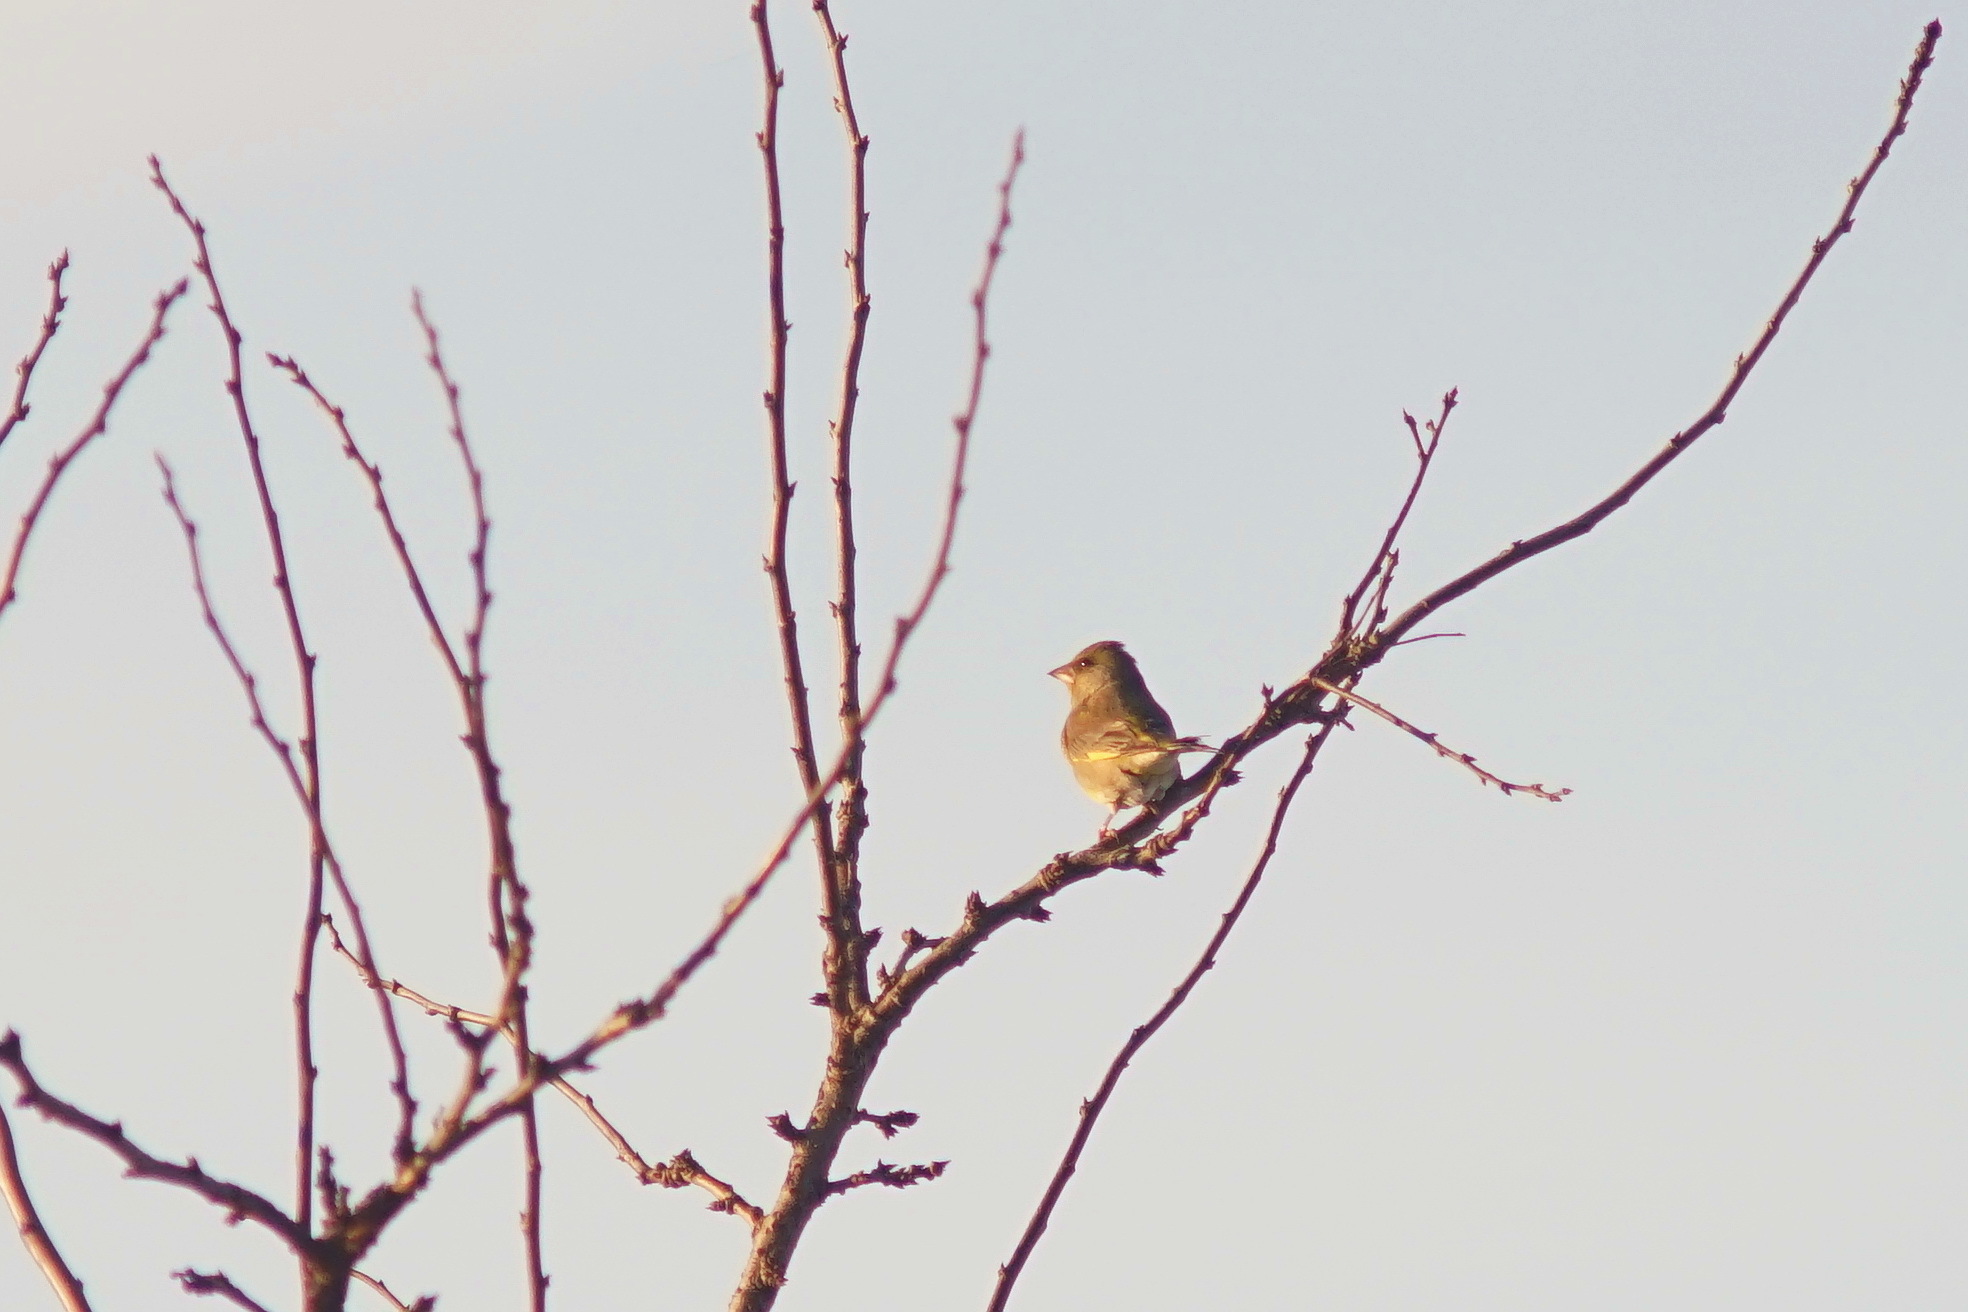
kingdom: Plantae
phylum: Tracheophyta
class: Liliopsida
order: Poales
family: Poaceae
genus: Chloris
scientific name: Chloris chloris
